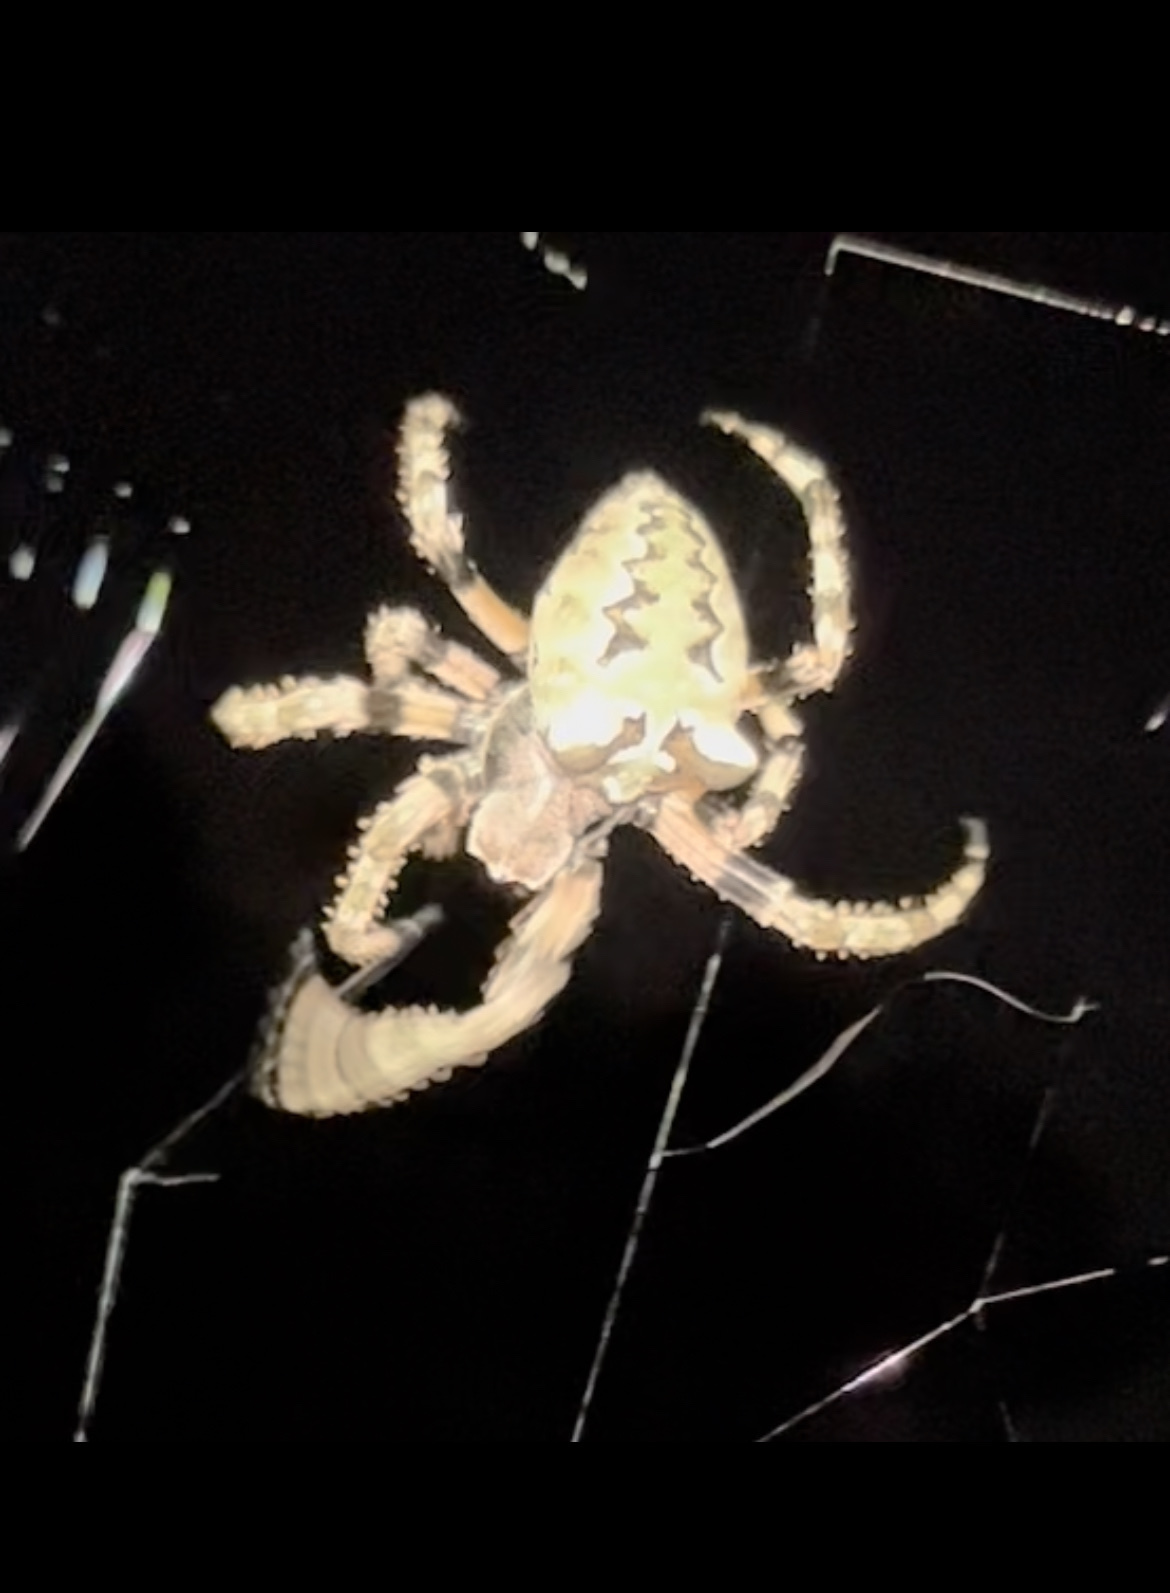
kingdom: Animalia
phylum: Arthropoda
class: Arachnida
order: Araneae
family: Araneidae
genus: Araneus
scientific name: Araneus bicentenarius
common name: Giant lichen orbweaver
